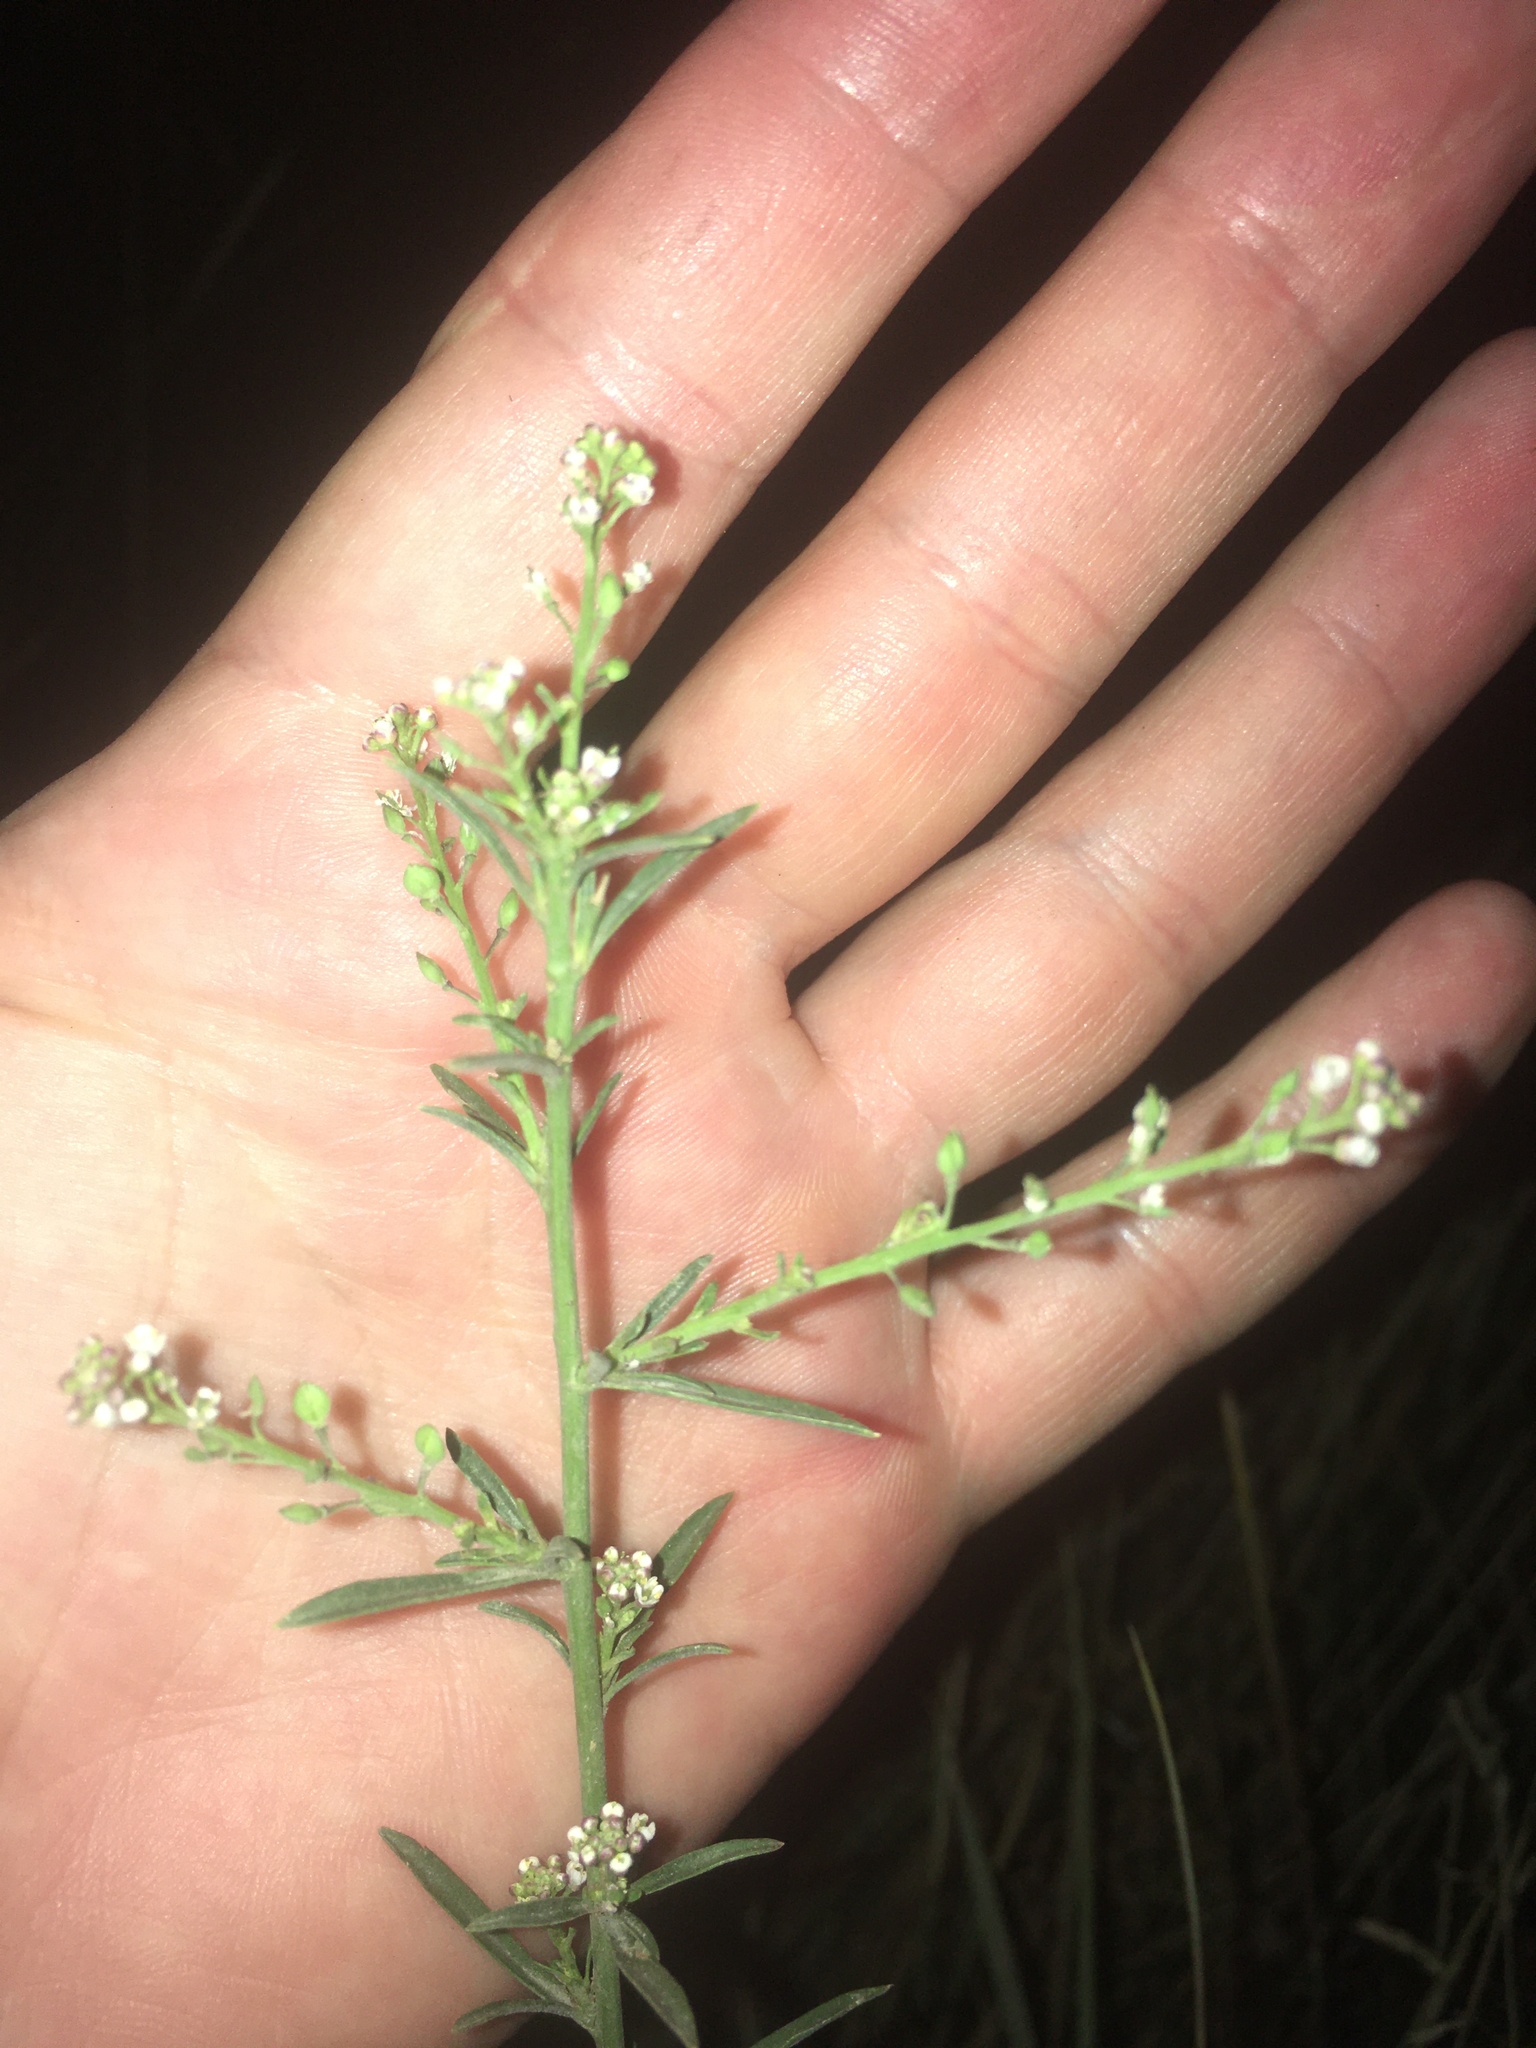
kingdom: Plantae
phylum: Tracheophyta
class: Magnoliopsida
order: Brassicales
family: Brassicaceae
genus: Lepidium
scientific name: Lepidium graminifolium
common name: Tall pepperwort
